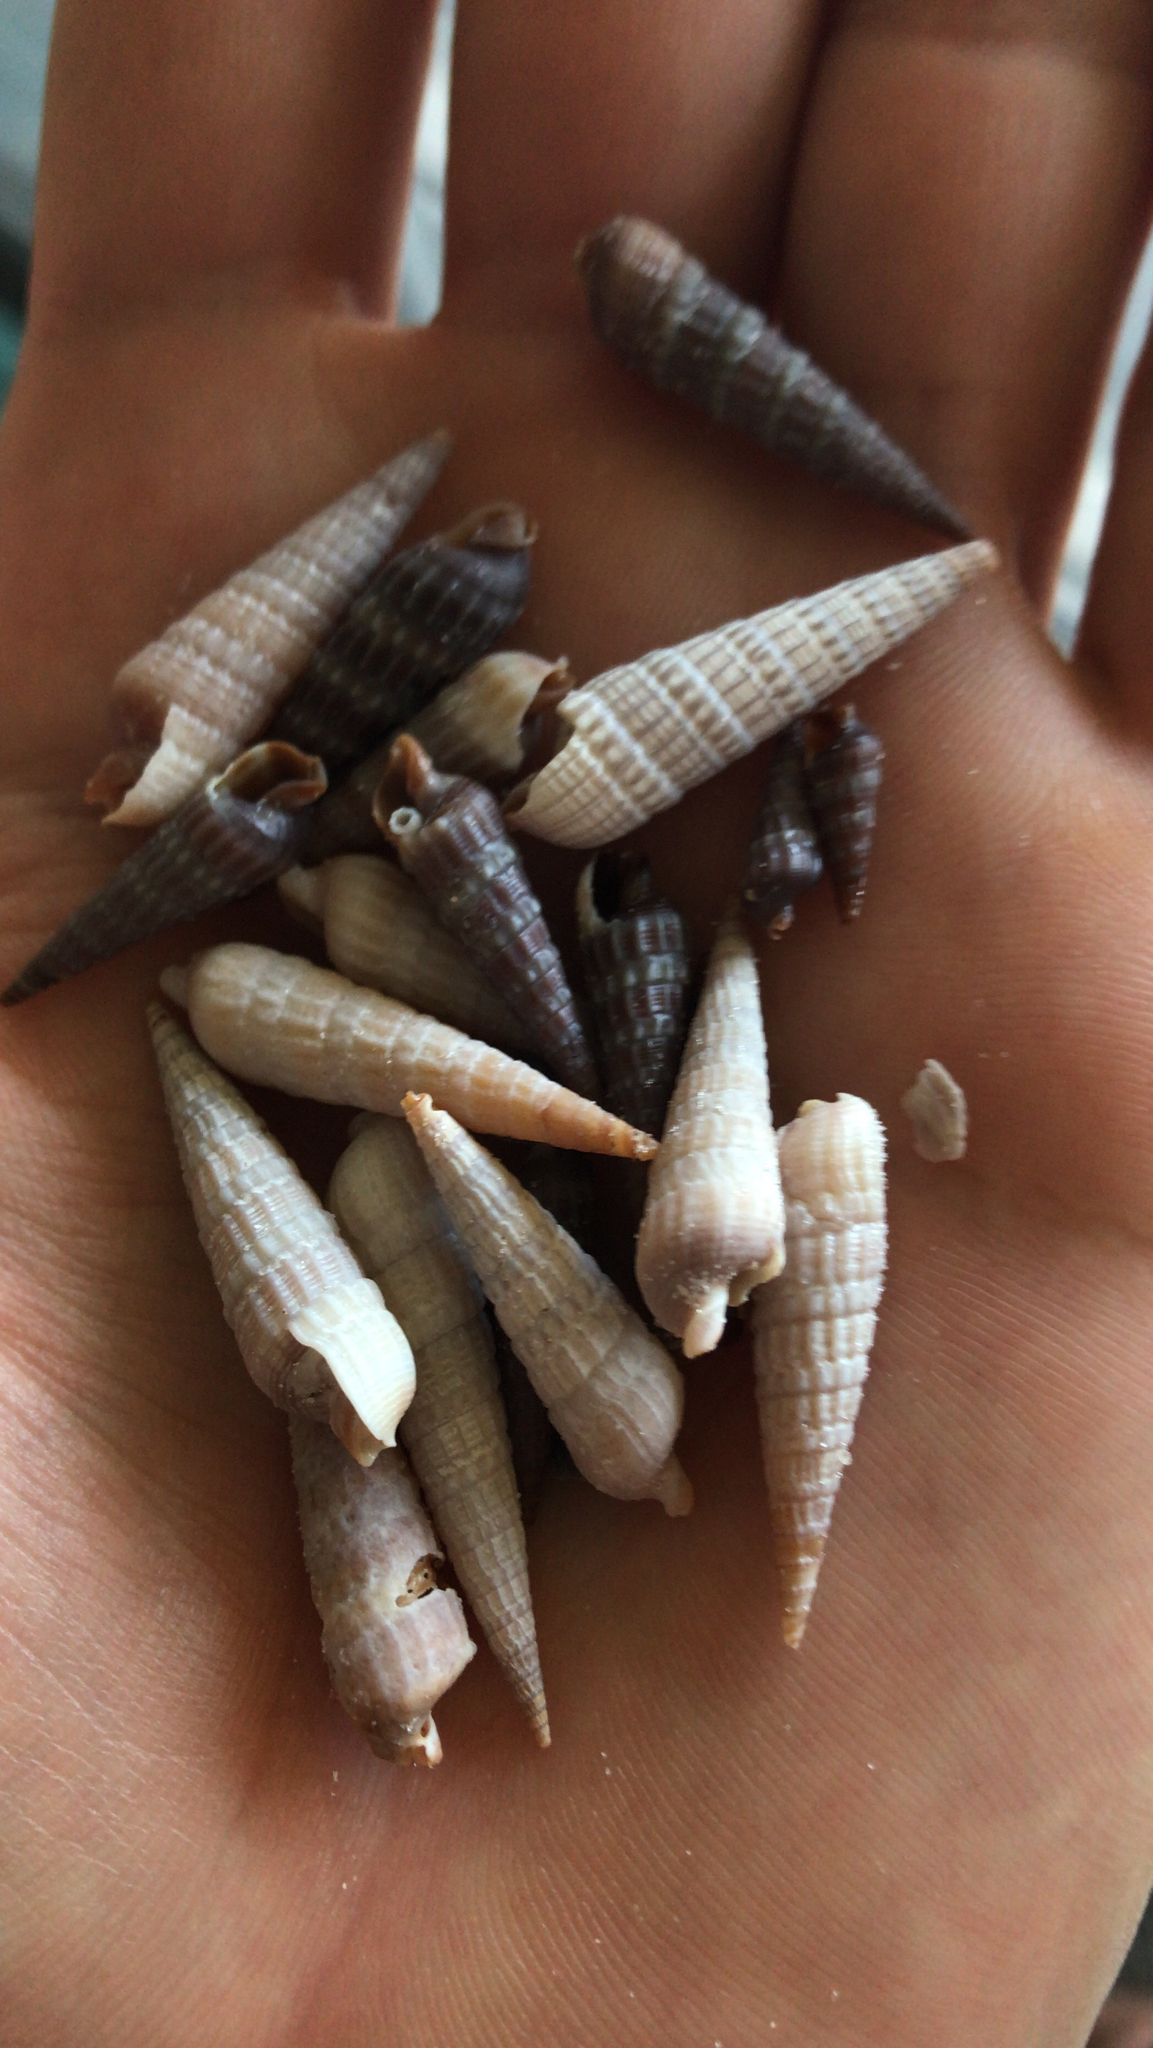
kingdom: Animalia
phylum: Mollusca
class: Gastropoda
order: Neogastropoda
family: Terebridae
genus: Neoterebra
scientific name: Neoterebra dislocata
